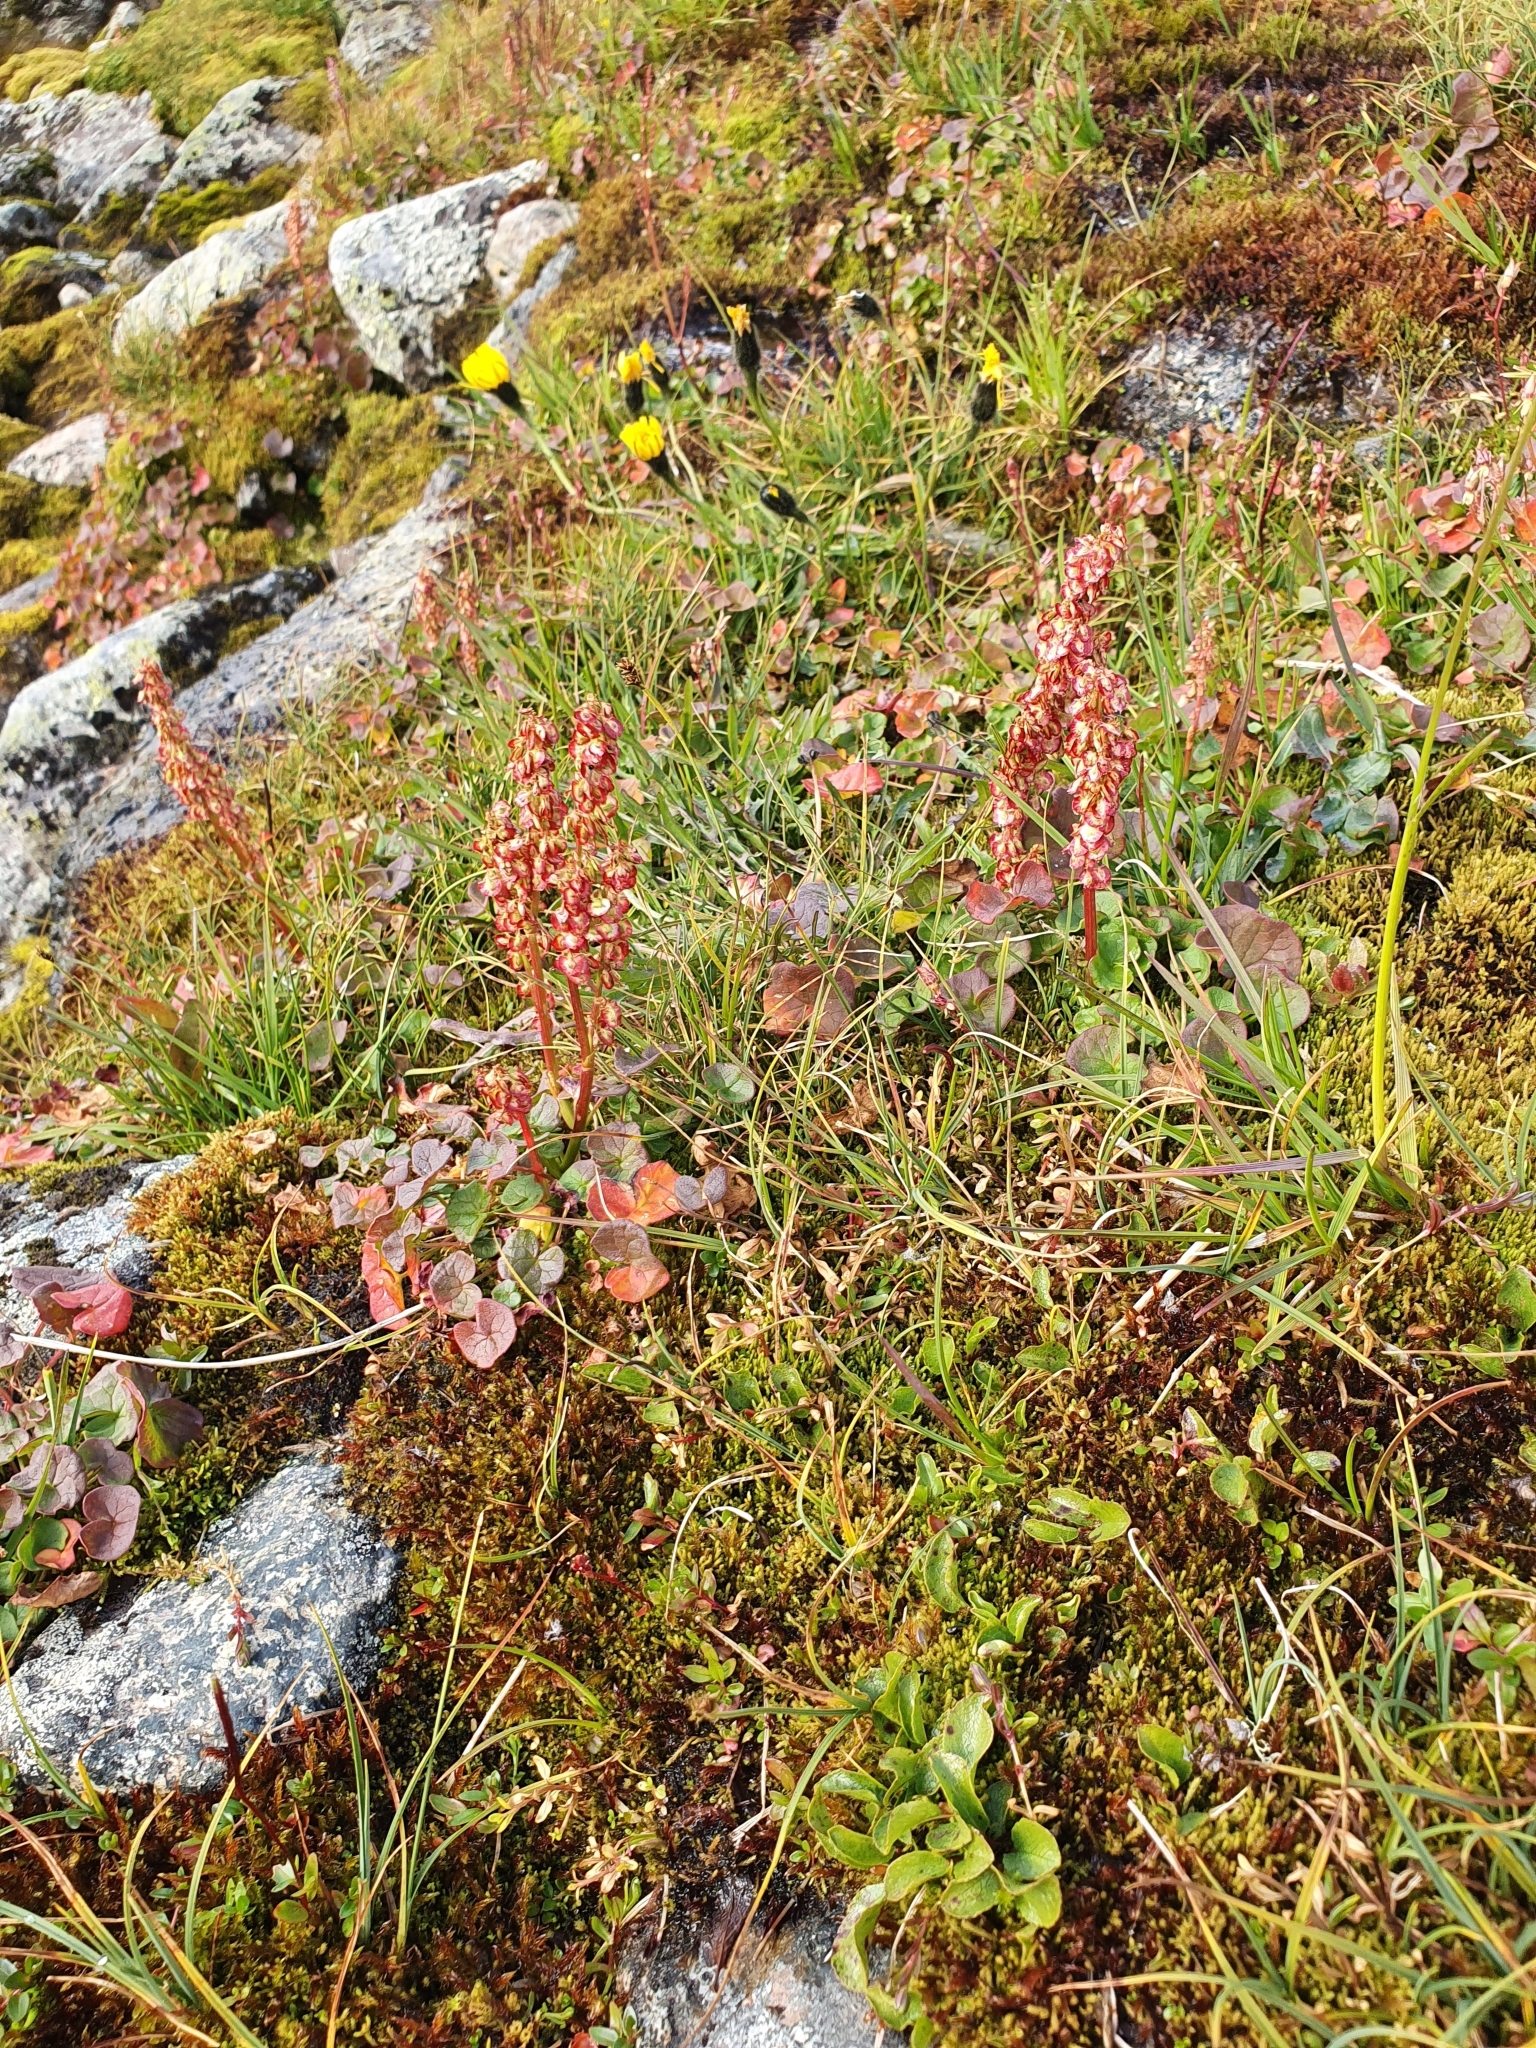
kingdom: Plantae
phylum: Tracheophyta
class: Magnoliopsida
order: Caryophyllales
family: Polygonaceae
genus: Oxyria
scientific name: Oxyria digyna
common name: Alpine mountain-sorrel
